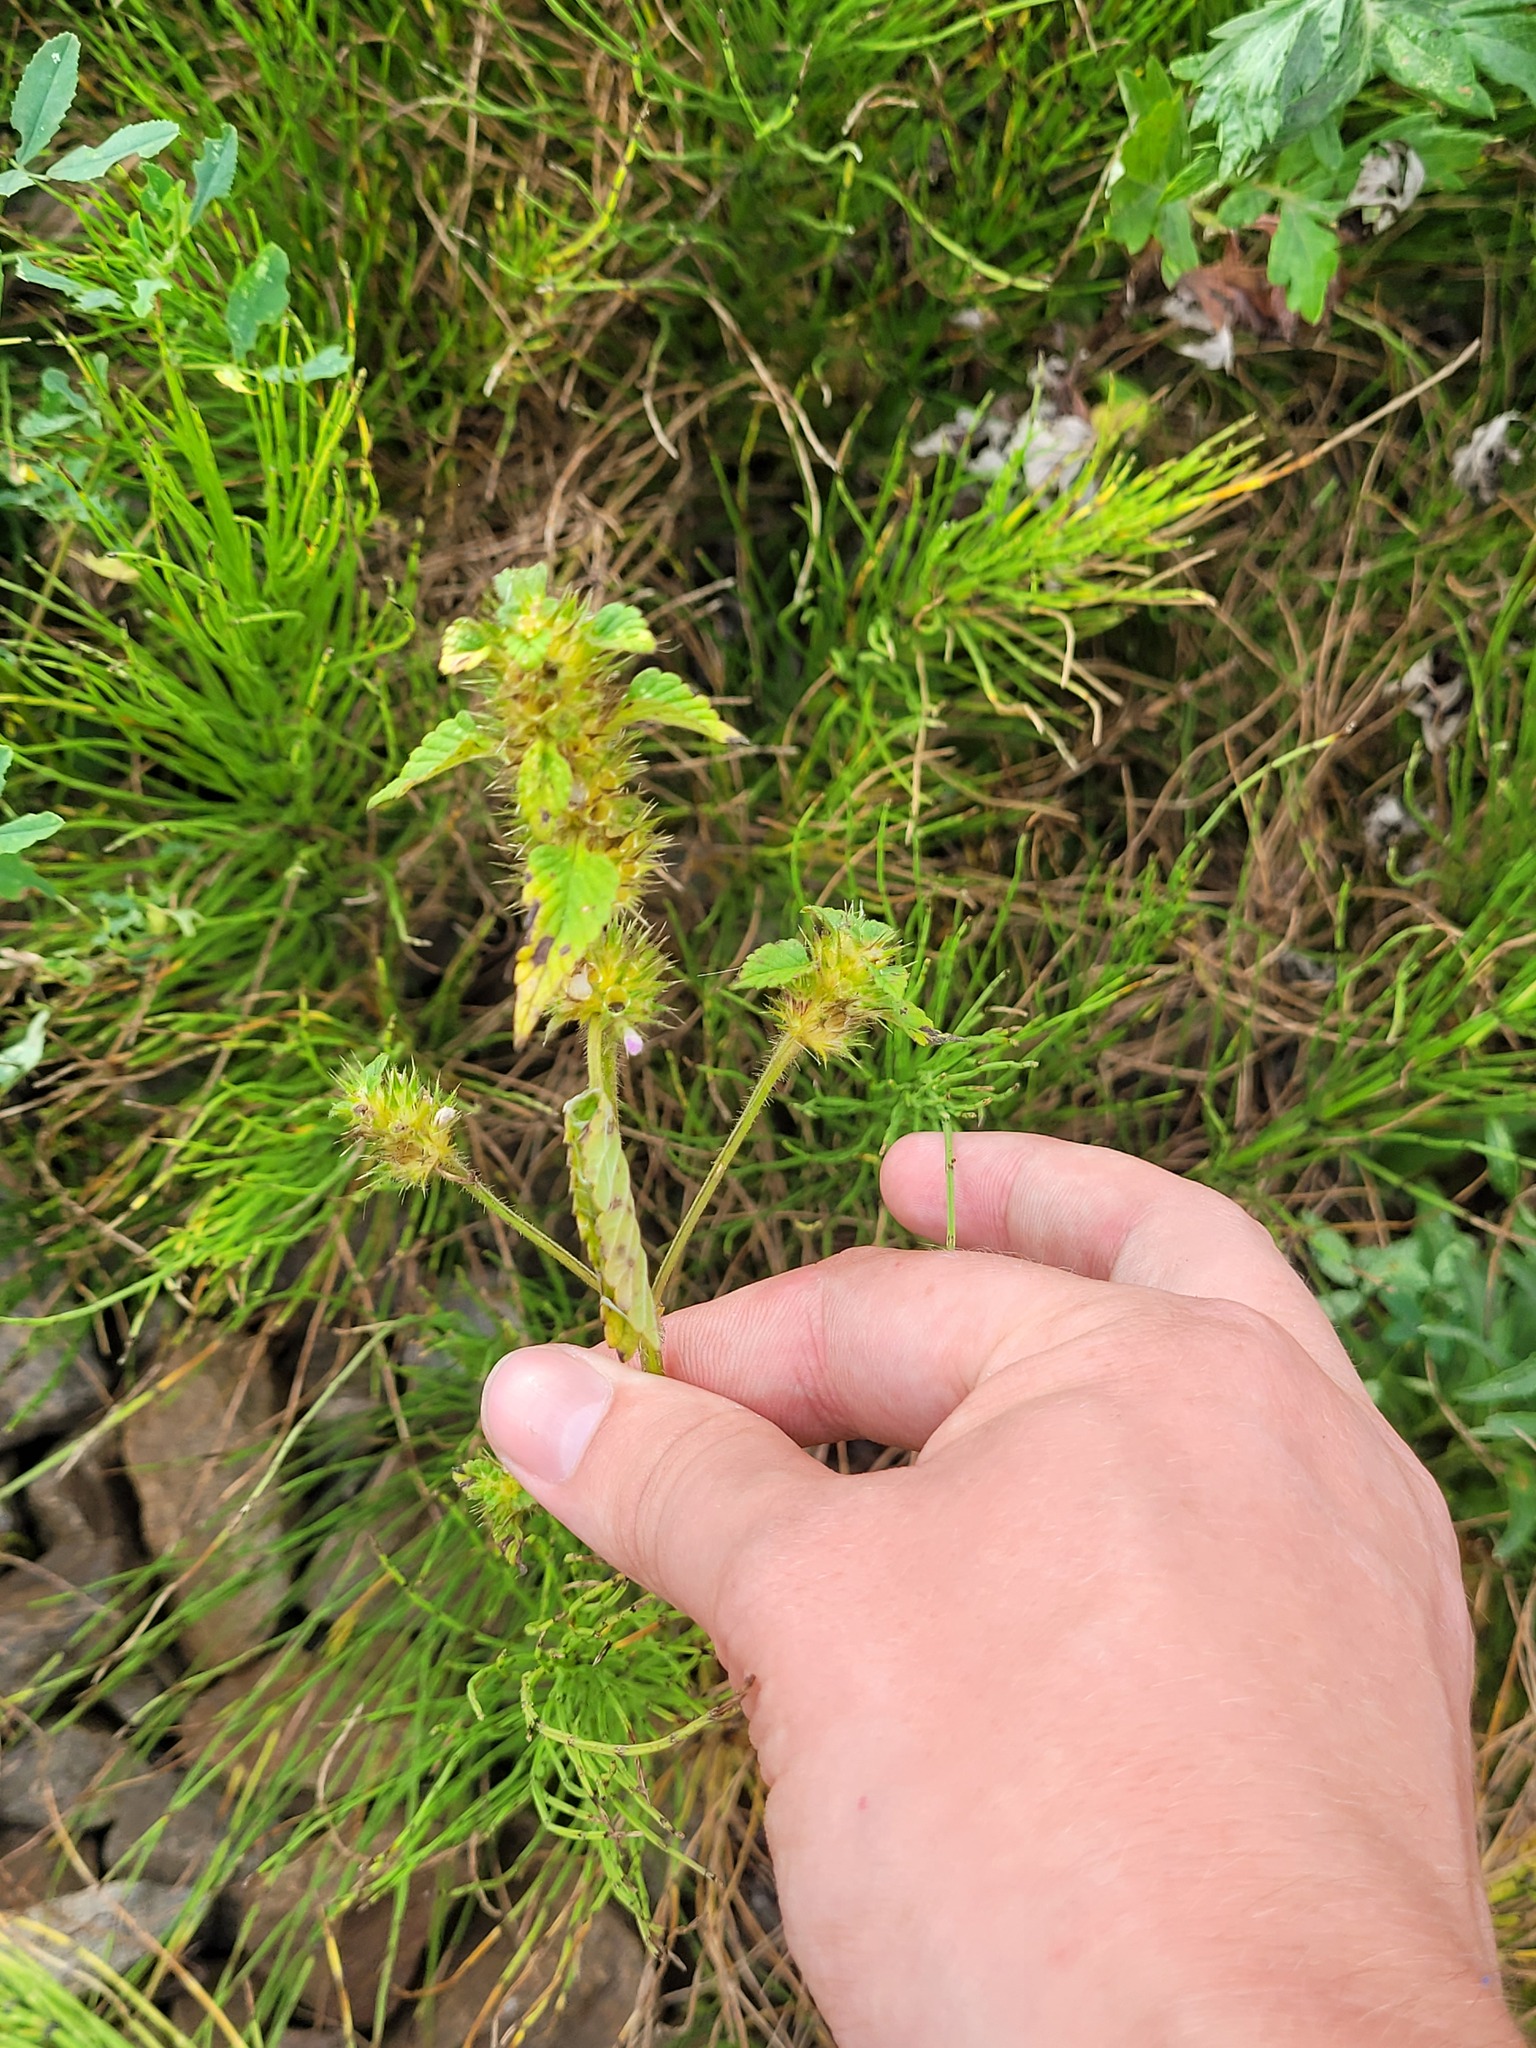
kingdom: Plantae
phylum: Tracheophyta
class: Magnoliopsida
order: Lamiales
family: Lamiaceae
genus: Galeopsis
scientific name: Galeopsis bifida
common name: Bifid hemp-nettle
